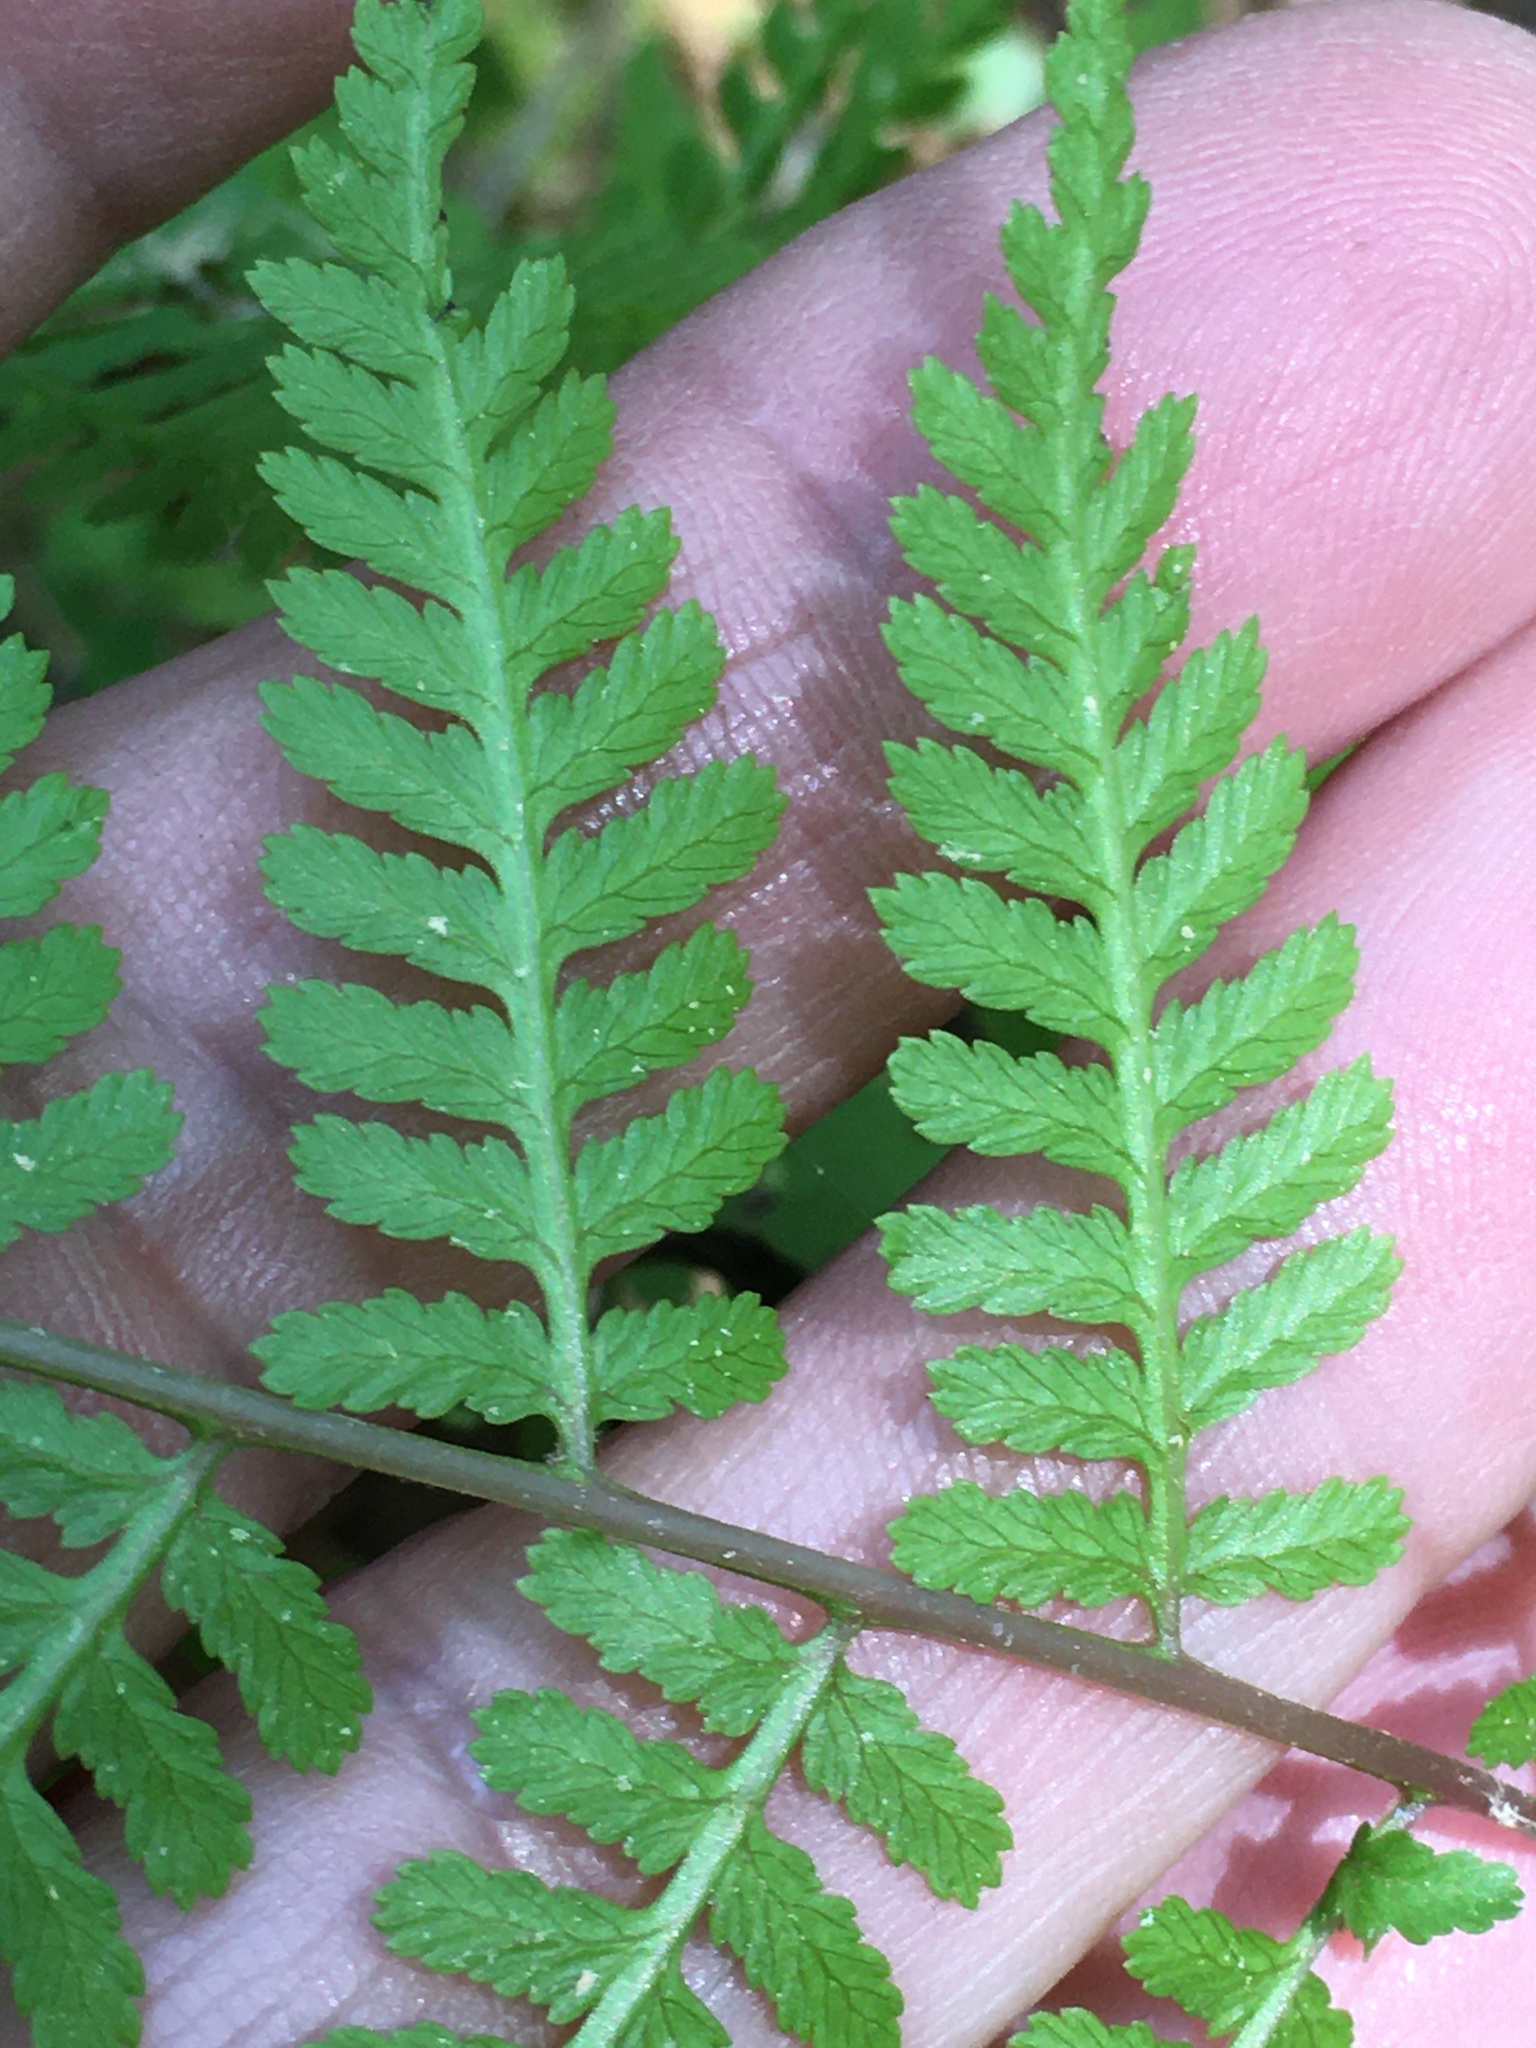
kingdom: Plantae
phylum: Tracheophyta
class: Polypodiopsida
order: Polypodiales
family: Athyriaceae
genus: Athyrium
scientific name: Athyrium asplenioides
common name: Southern lady fern
